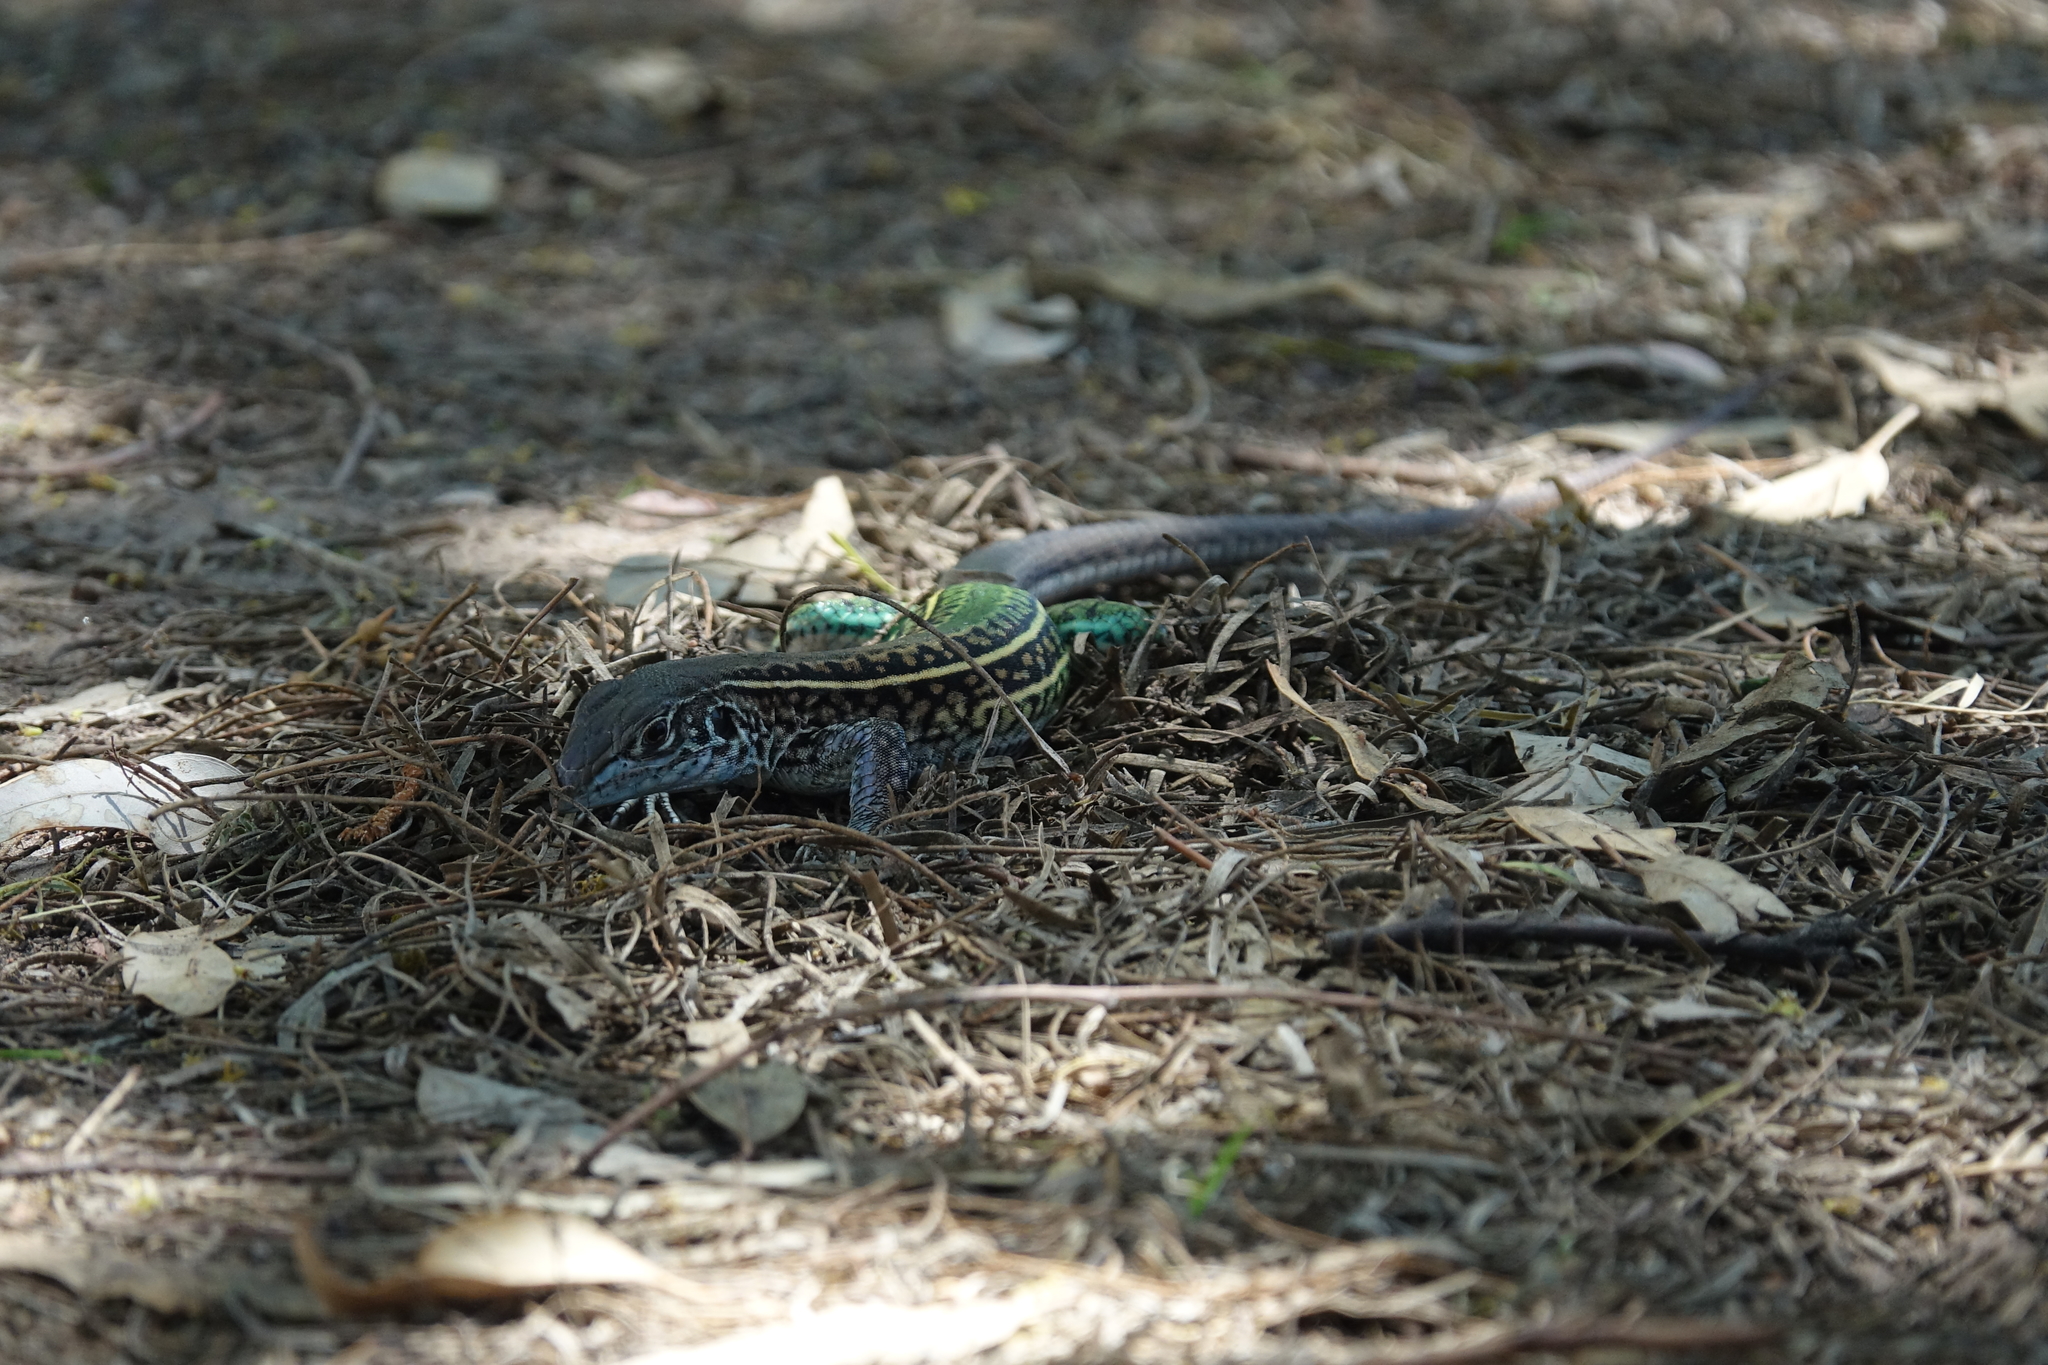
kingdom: Animalia
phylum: Chordata
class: Squamata
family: Teiidae
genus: Teius
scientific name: Teius teyou
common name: Four-toed tegu
